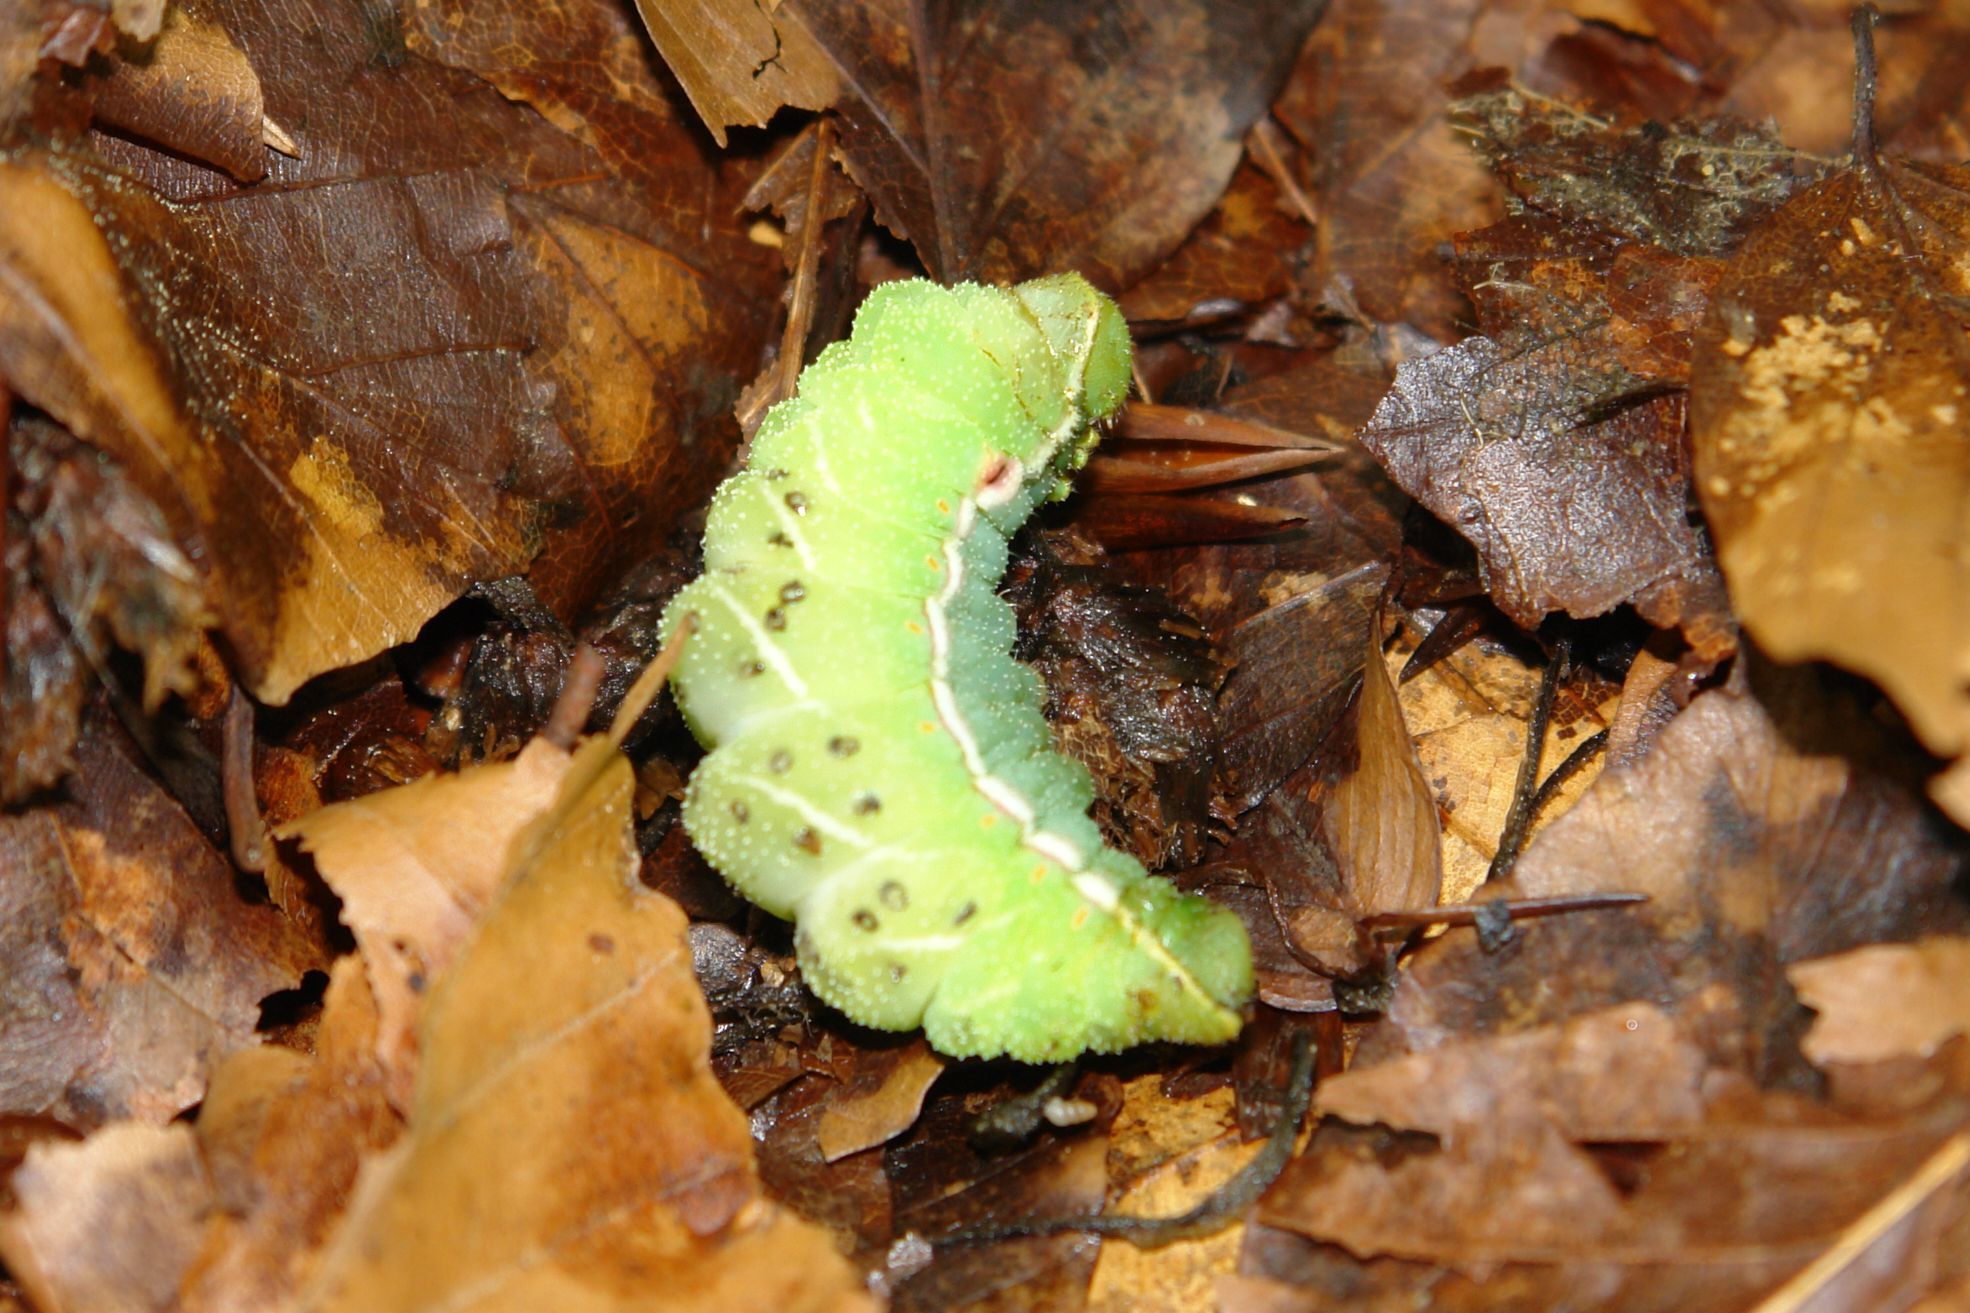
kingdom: Animalia
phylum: Arthropoda
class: Insecta
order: Lepidoptera
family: Saturniidae
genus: Aglia
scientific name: Aglia tau
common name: Tau emperor
